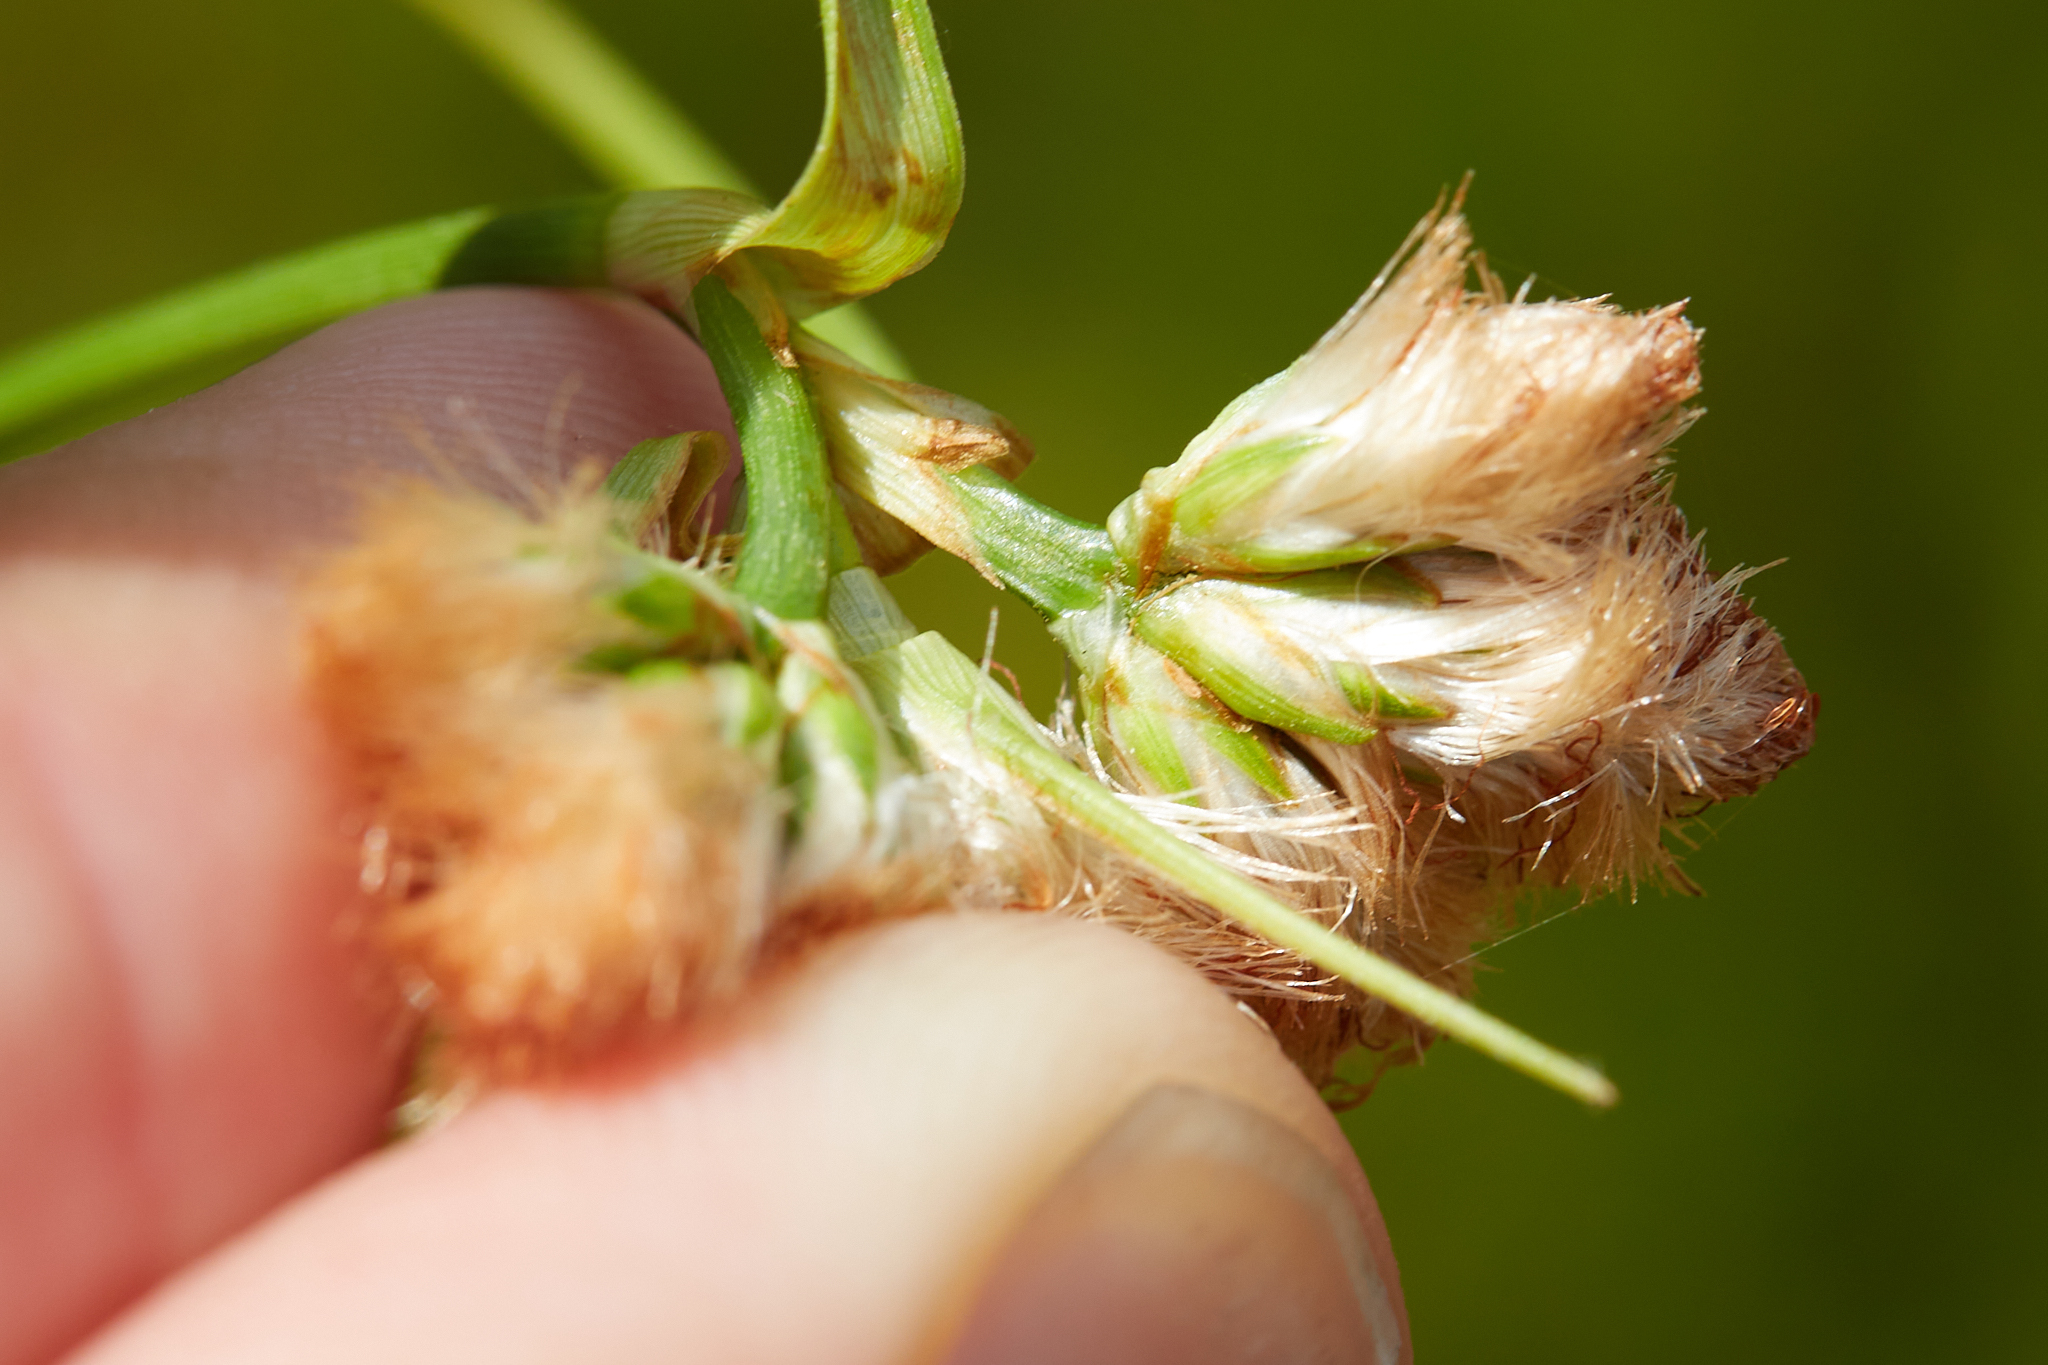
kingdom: Plantae
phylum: Tracheophyta
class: Liliopsida
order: Poales
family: Cyperaceae
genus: Eriophorum
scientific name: Eriophorum virginicum
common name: Tawny cottongrass
